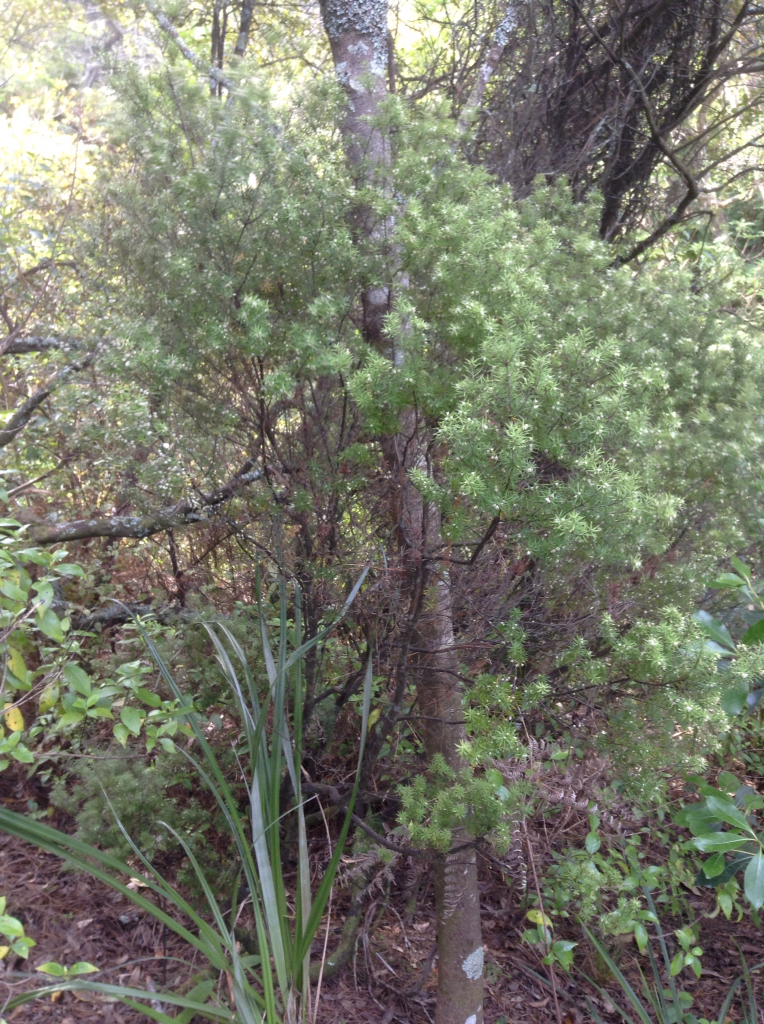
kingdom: Plantae
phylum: Tracheophyta
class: Magnoliopsida
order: Ericales
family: Ericaceae
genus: Leptecophylla
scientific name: Leptecophylla juniperina
